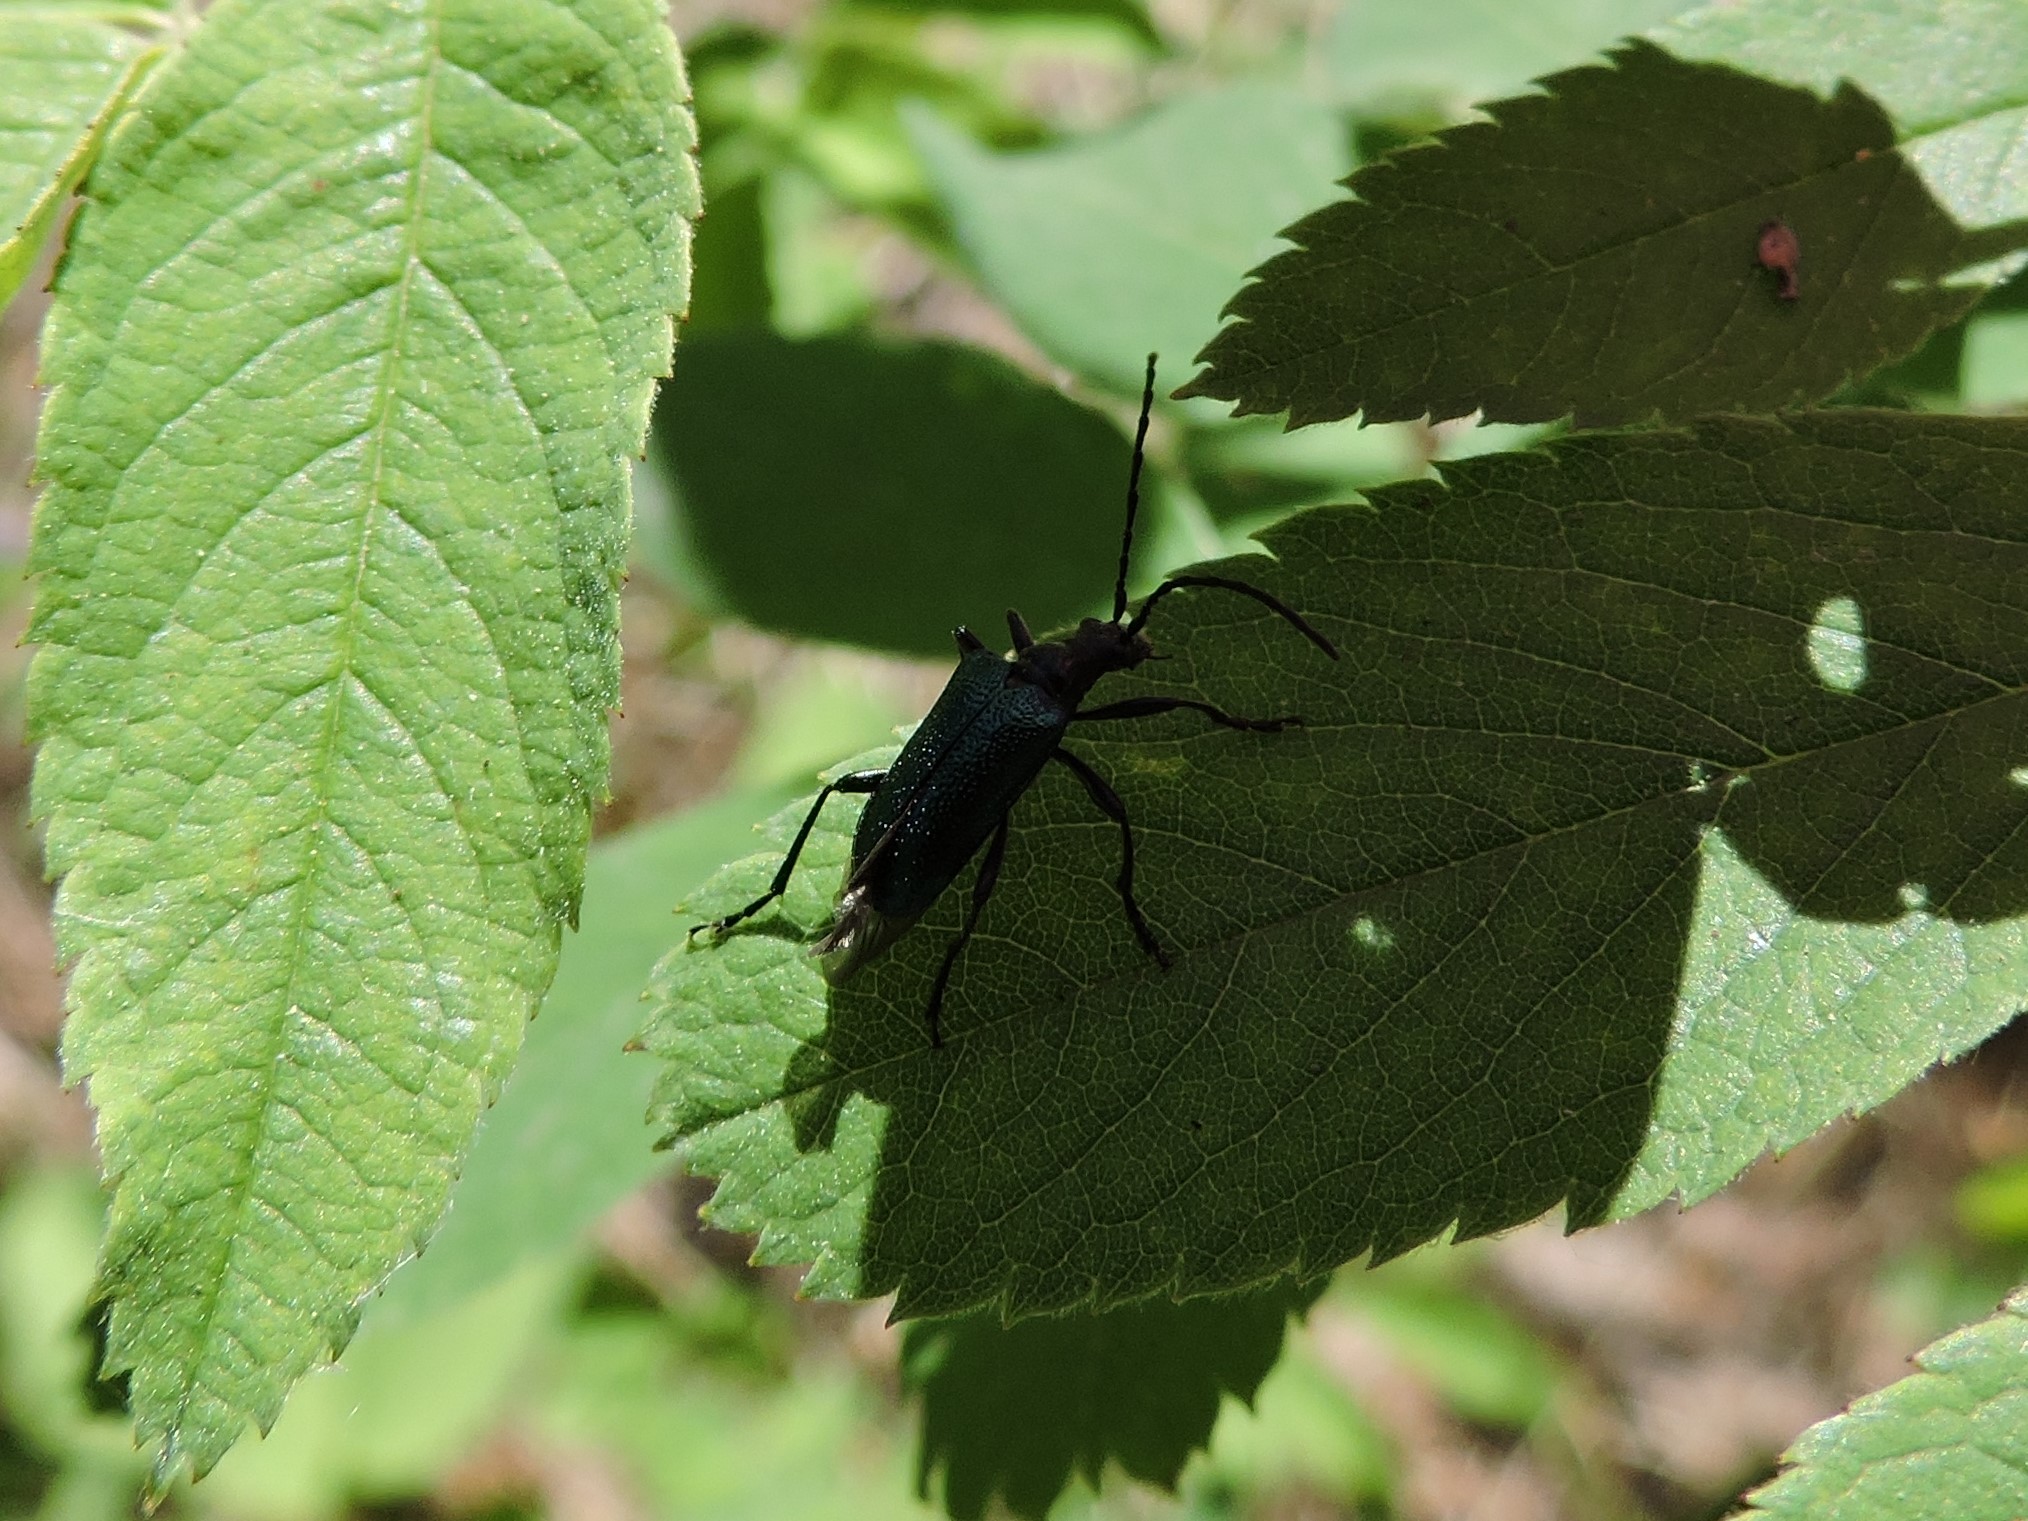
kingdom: Animalia
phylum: Arthropoda
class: Insecta
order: Coleoptera
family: Cerambycidae
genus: Gaurotes
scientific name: Gaurotes virginea
